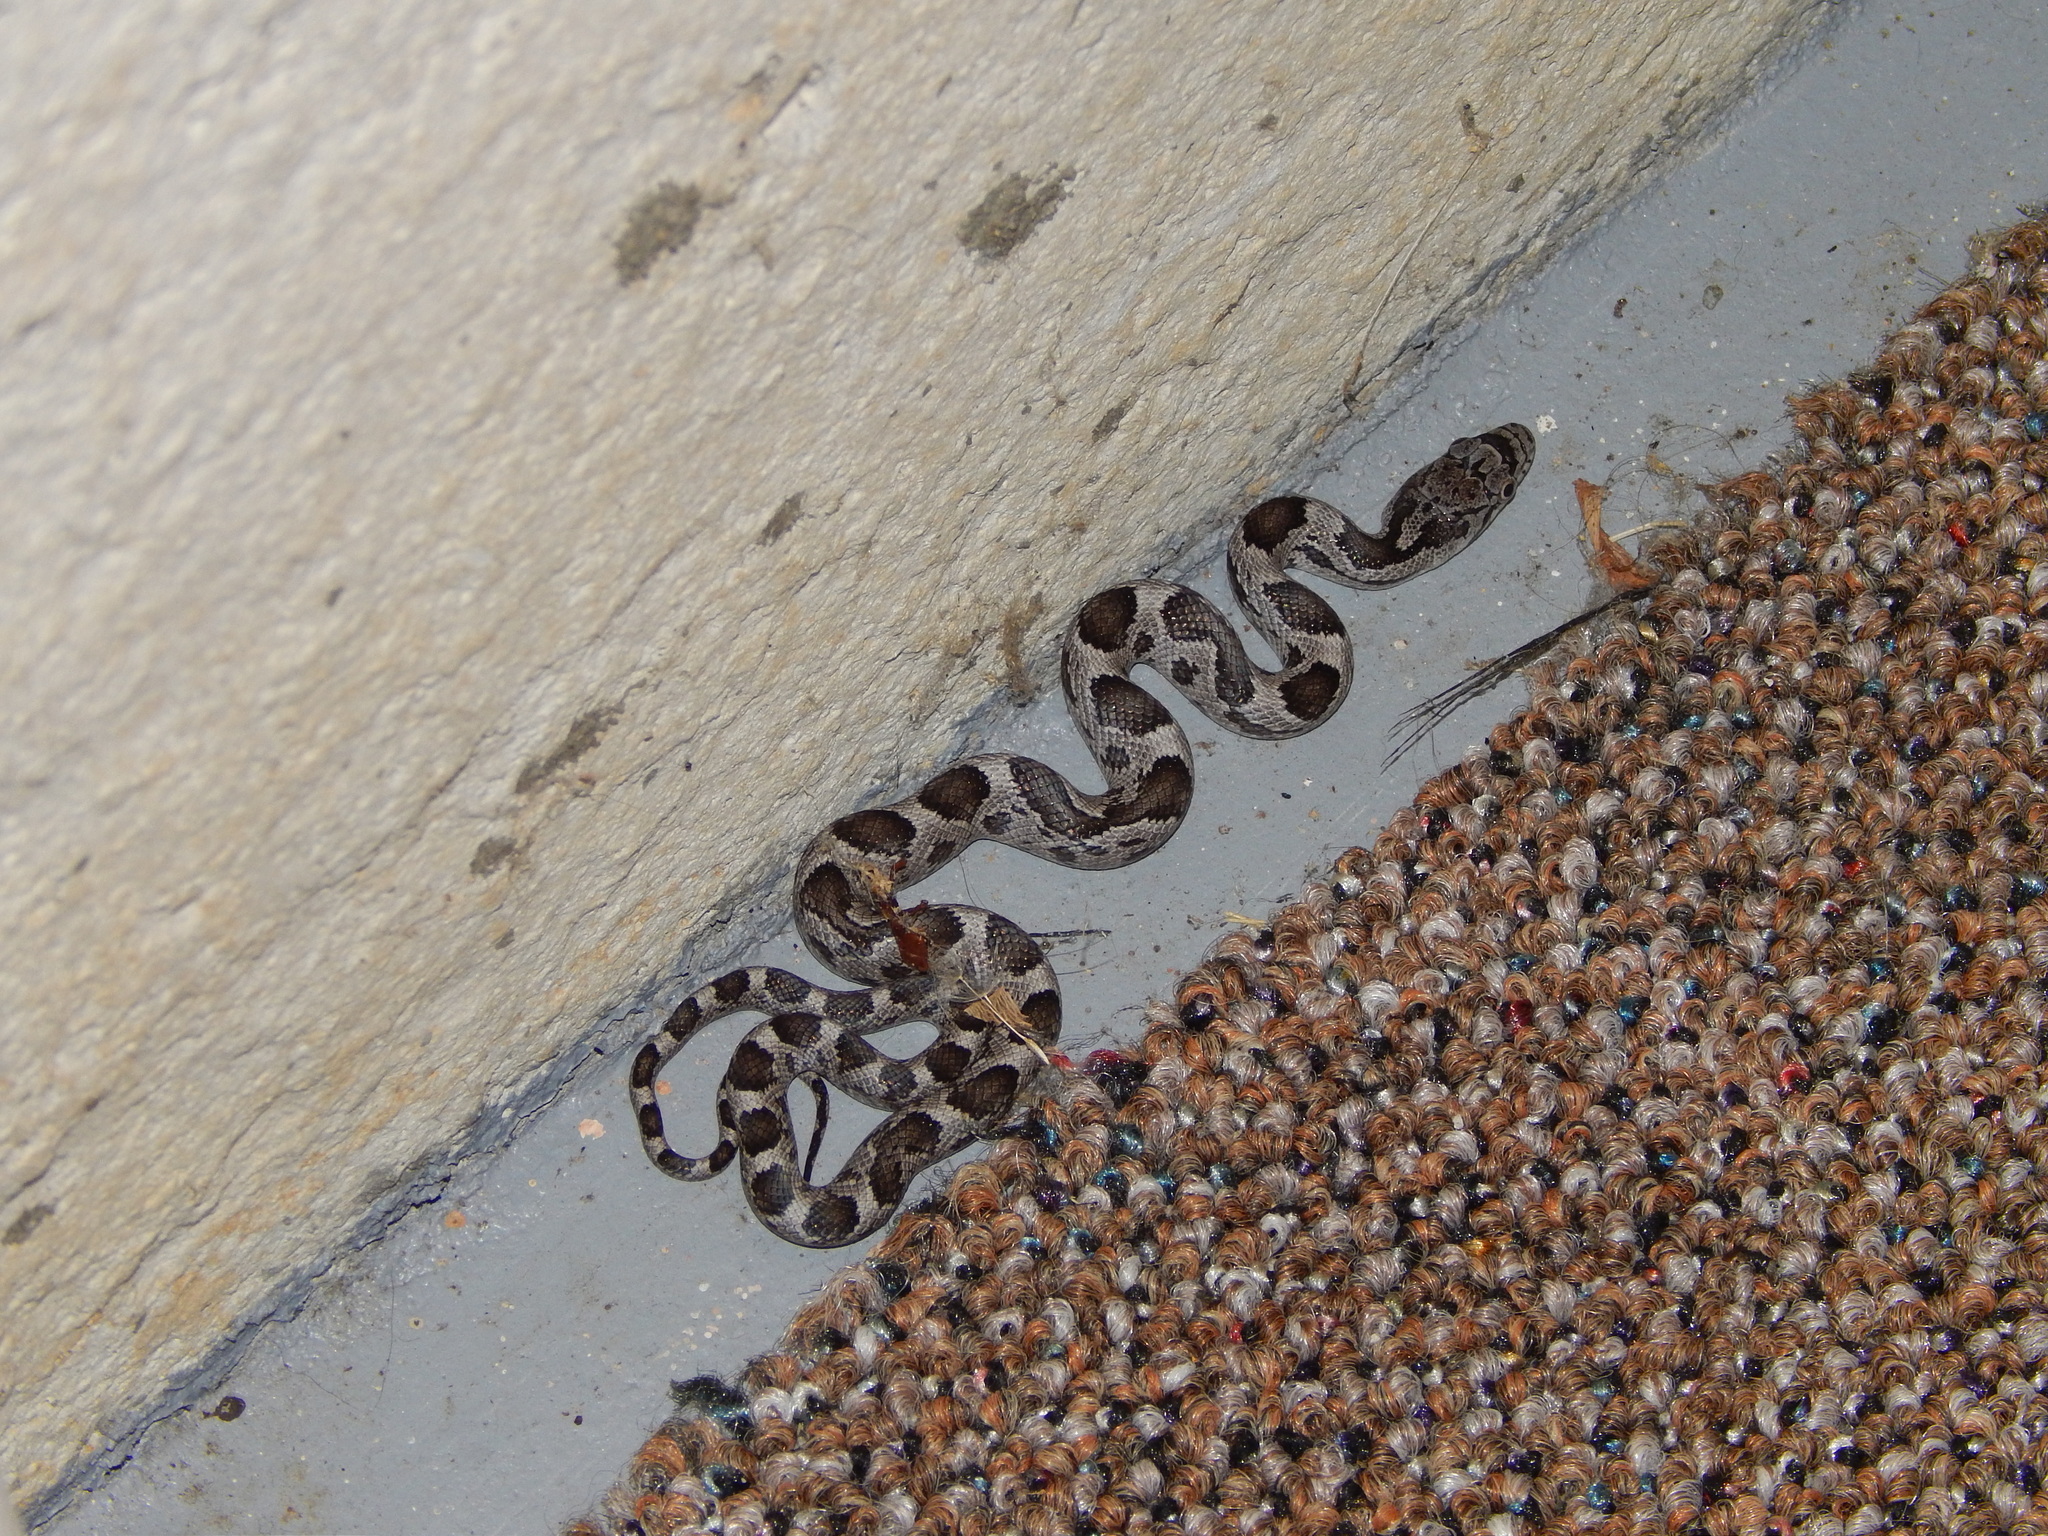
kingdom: Animalia
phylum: Chordata
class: Squamata
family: Colubridae
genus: Pantherophis
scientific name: Pantherophis alleghaniensis
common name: Eastern rat snake
